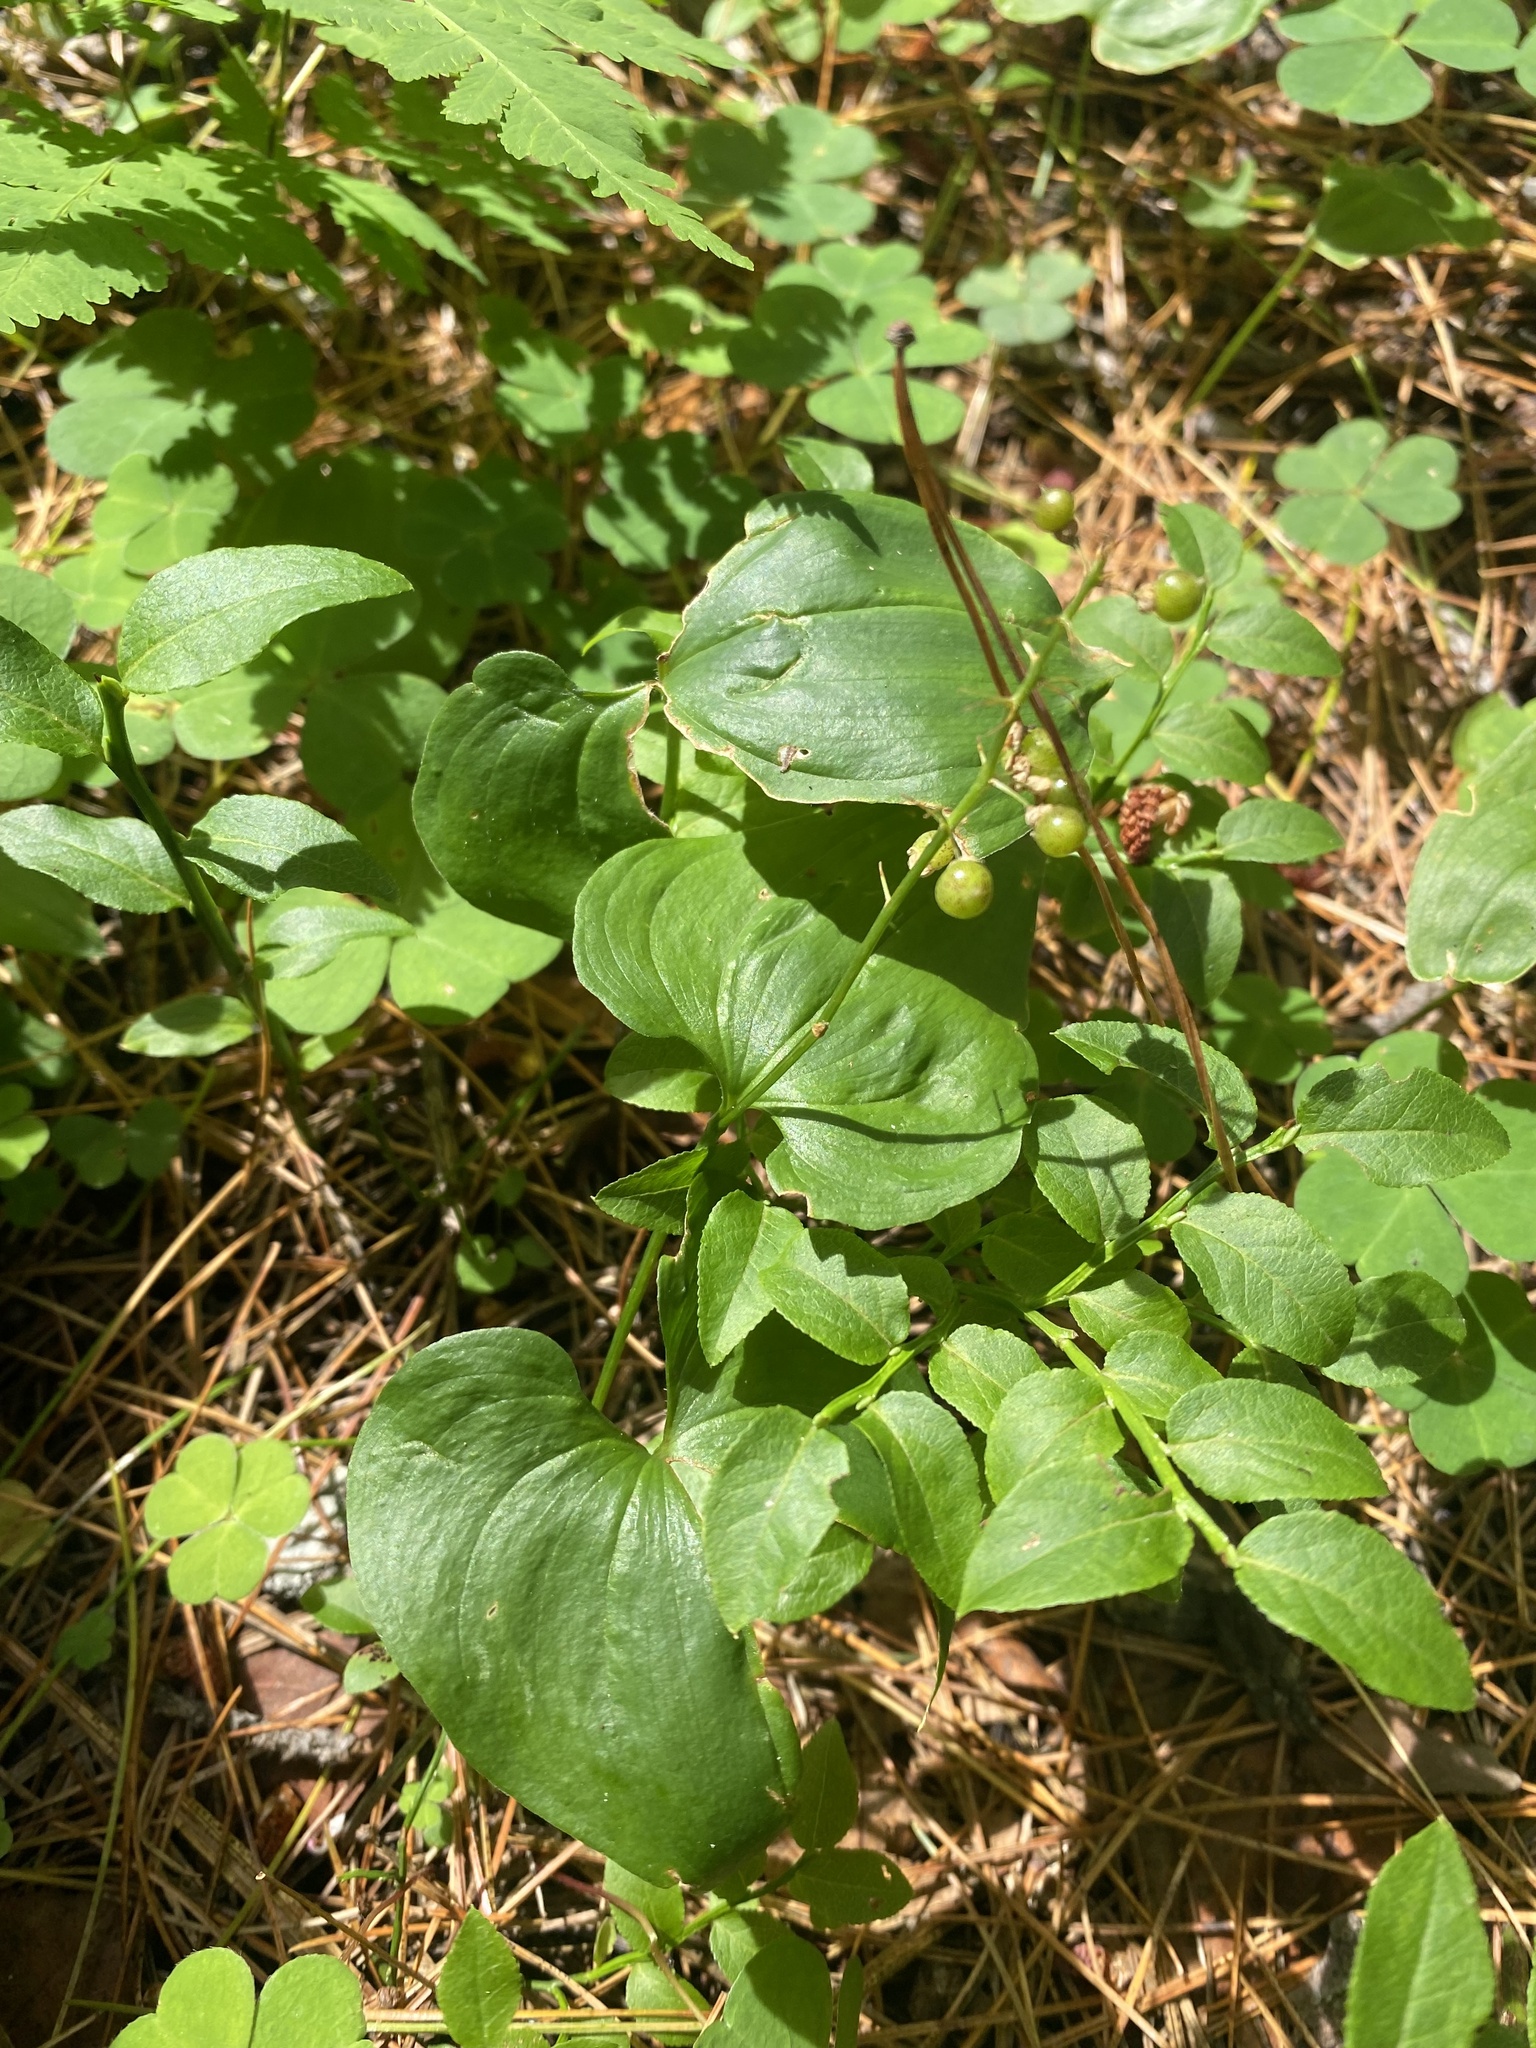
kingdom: Plantae
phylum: Tracheophyta
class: Liliopsida
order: Asparagales
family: Asparagaceae
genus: Maianthemum
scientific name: Maianthemum bifolium
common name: May lily
